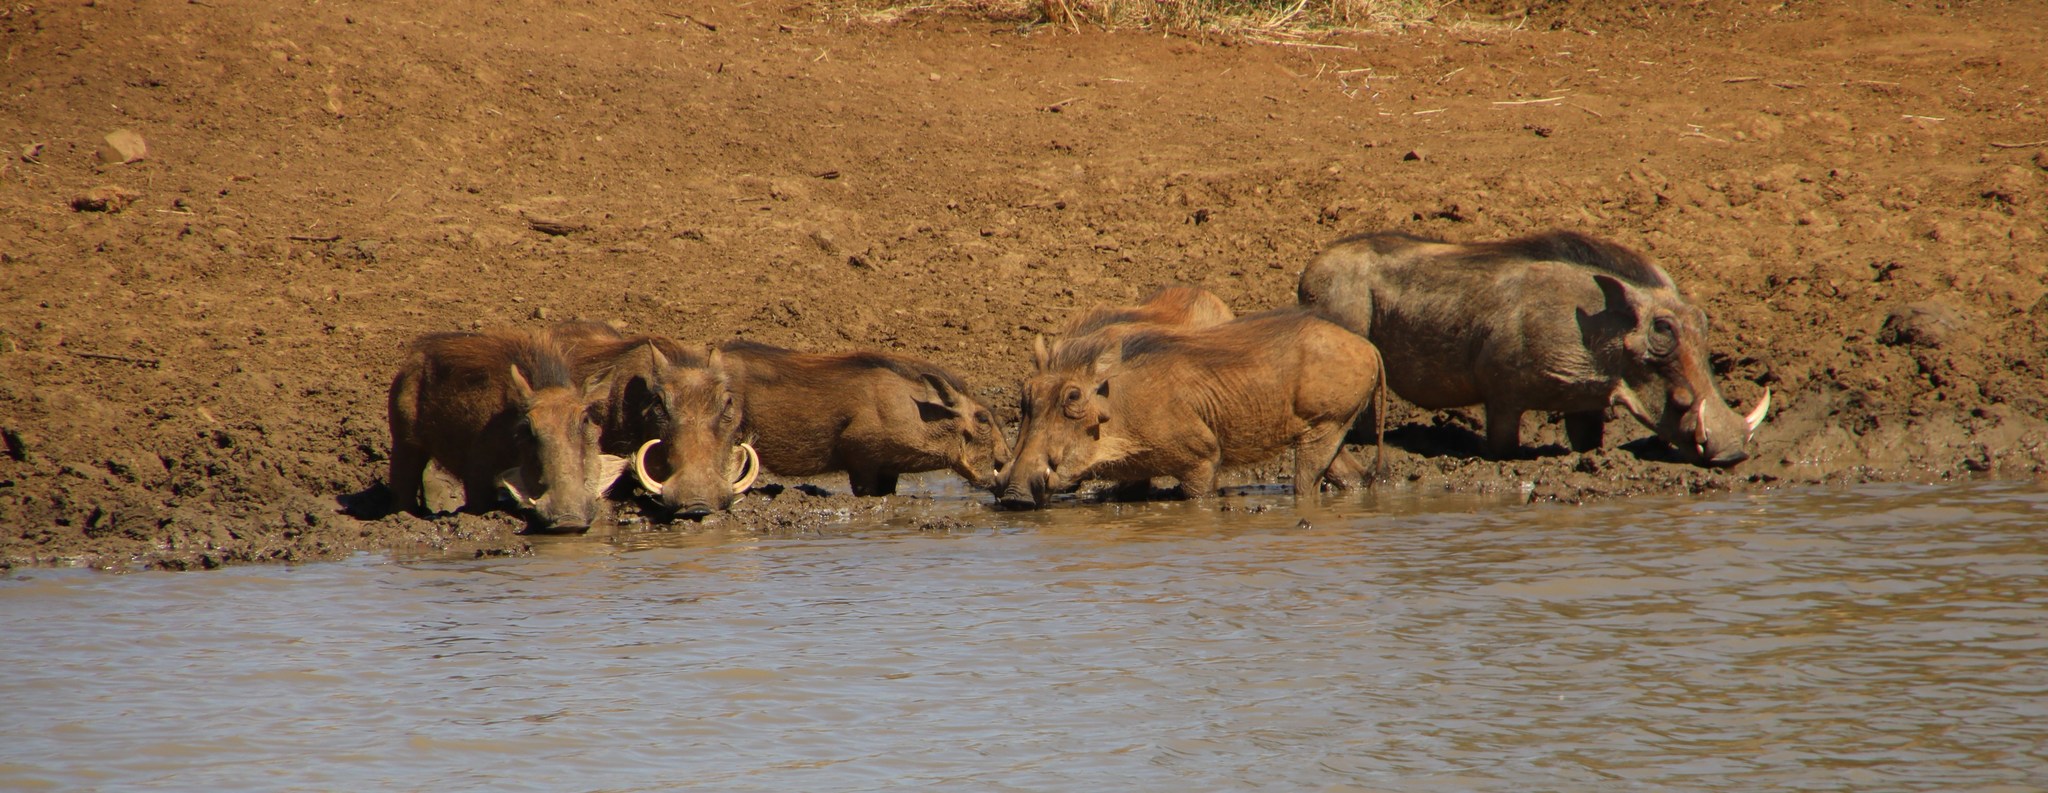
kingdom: Animalia
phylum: Chordata
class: Mammalia
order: Artiodactyla
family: Suidae
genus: Phacochoerus
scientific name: Phacochoerus africanus
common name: Common warthog
